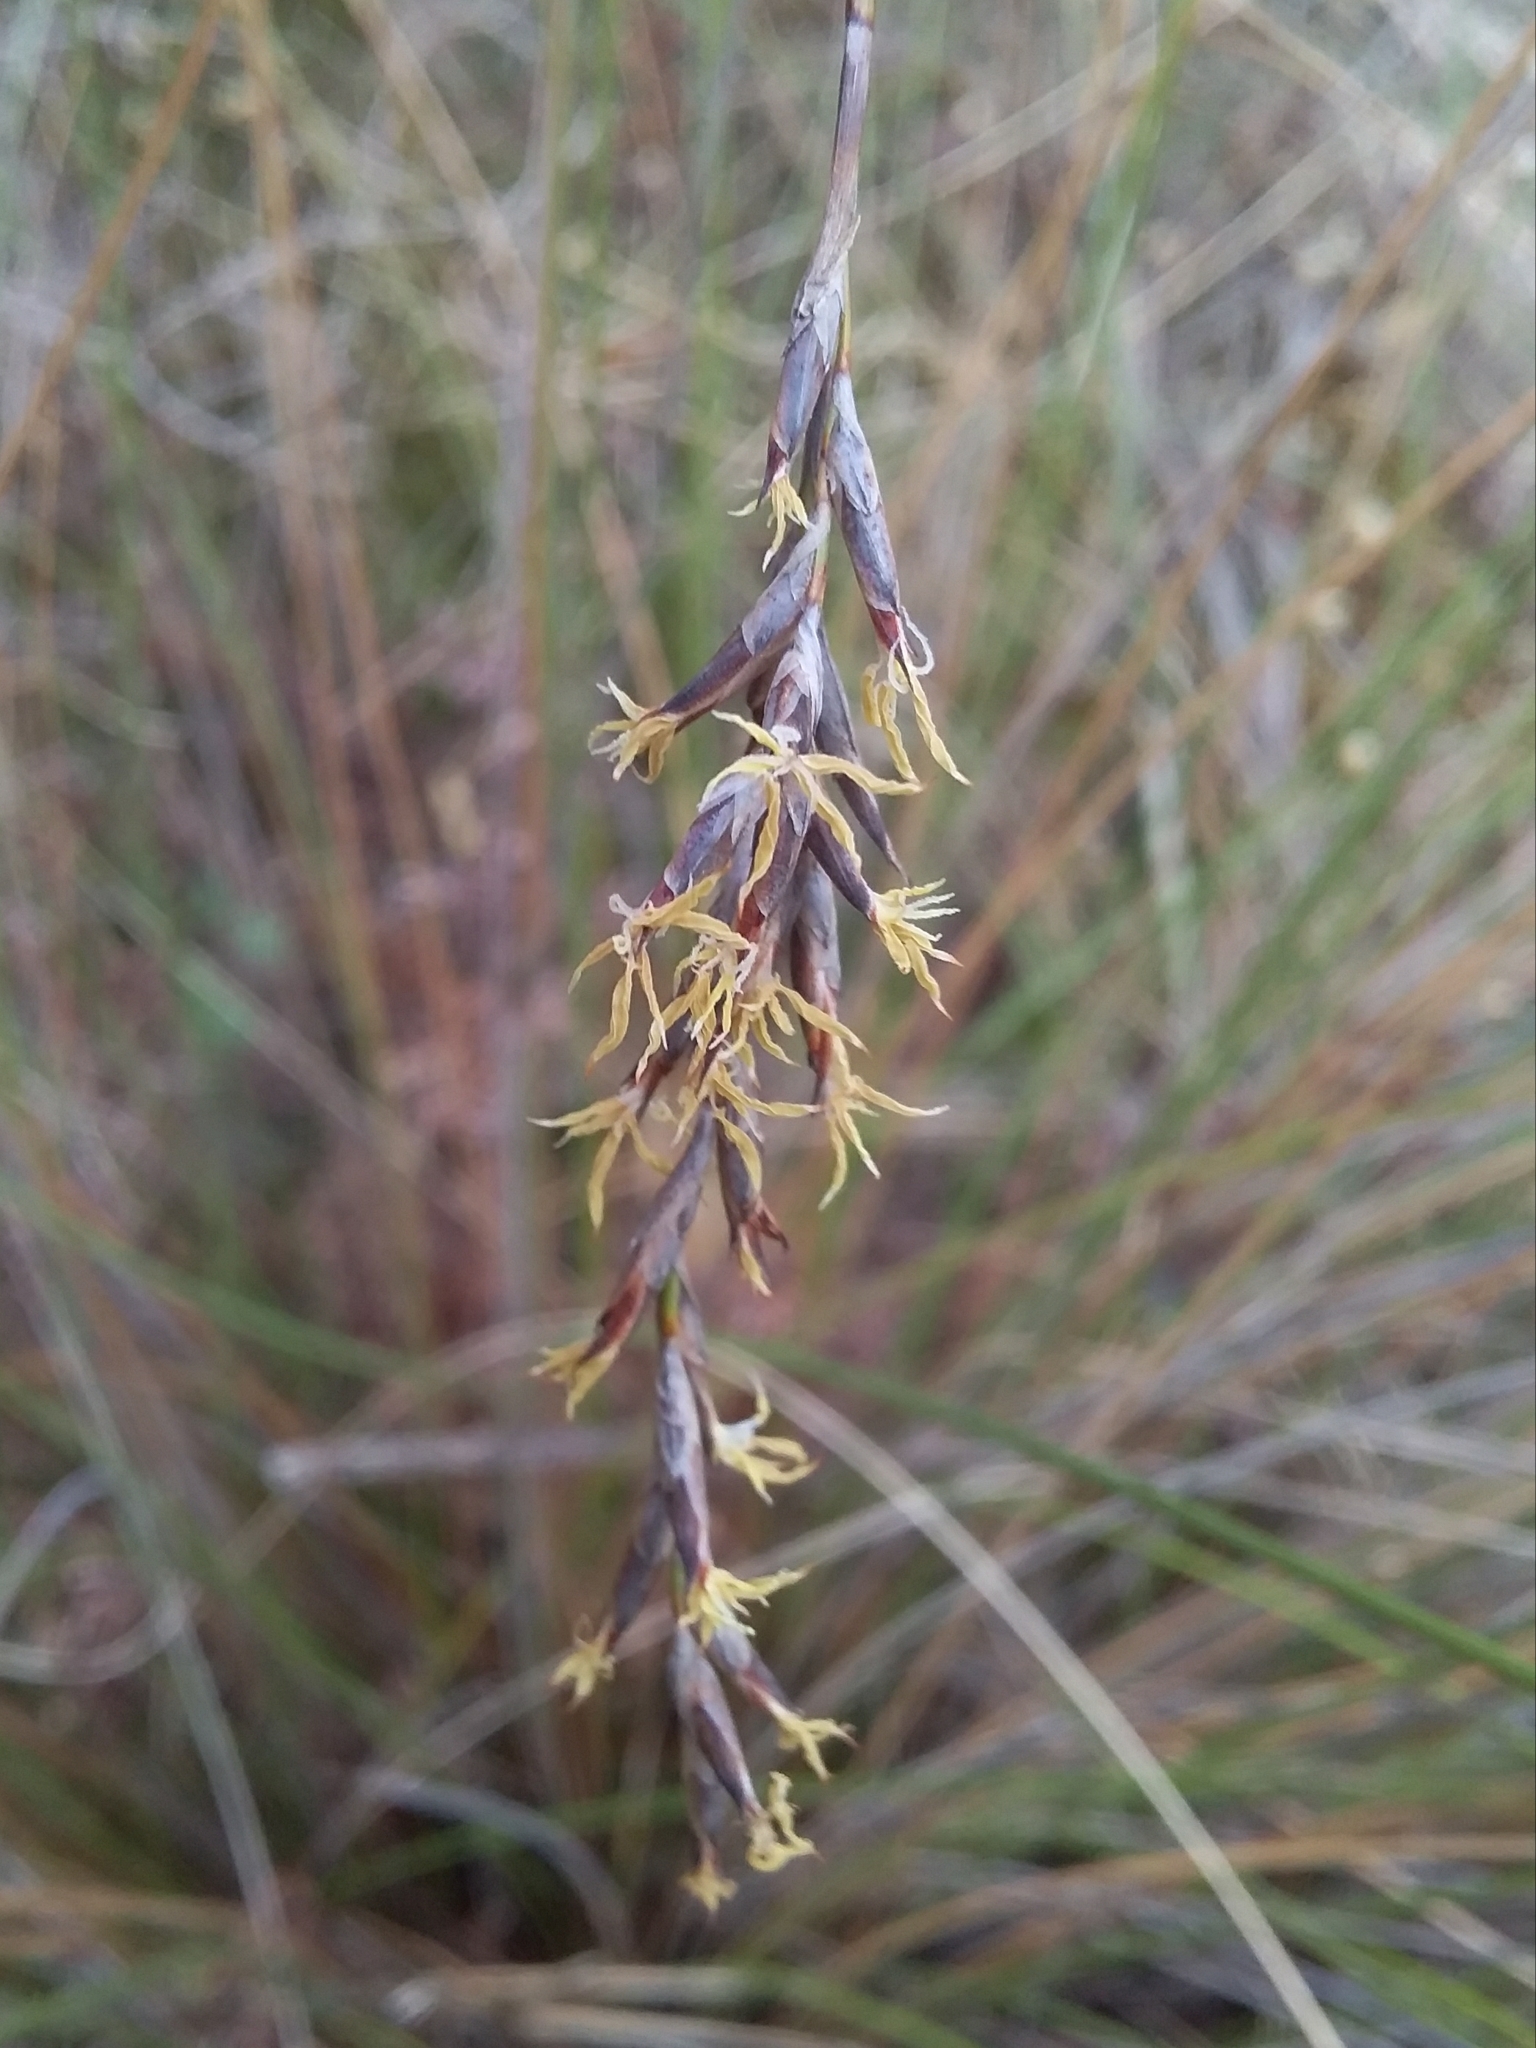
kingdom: Plantae
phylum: Tracheophyta
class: Liliopsida
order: Poales
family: Cyperaceae
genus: Lepidosperma
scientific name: Lepidosperma semiteres
